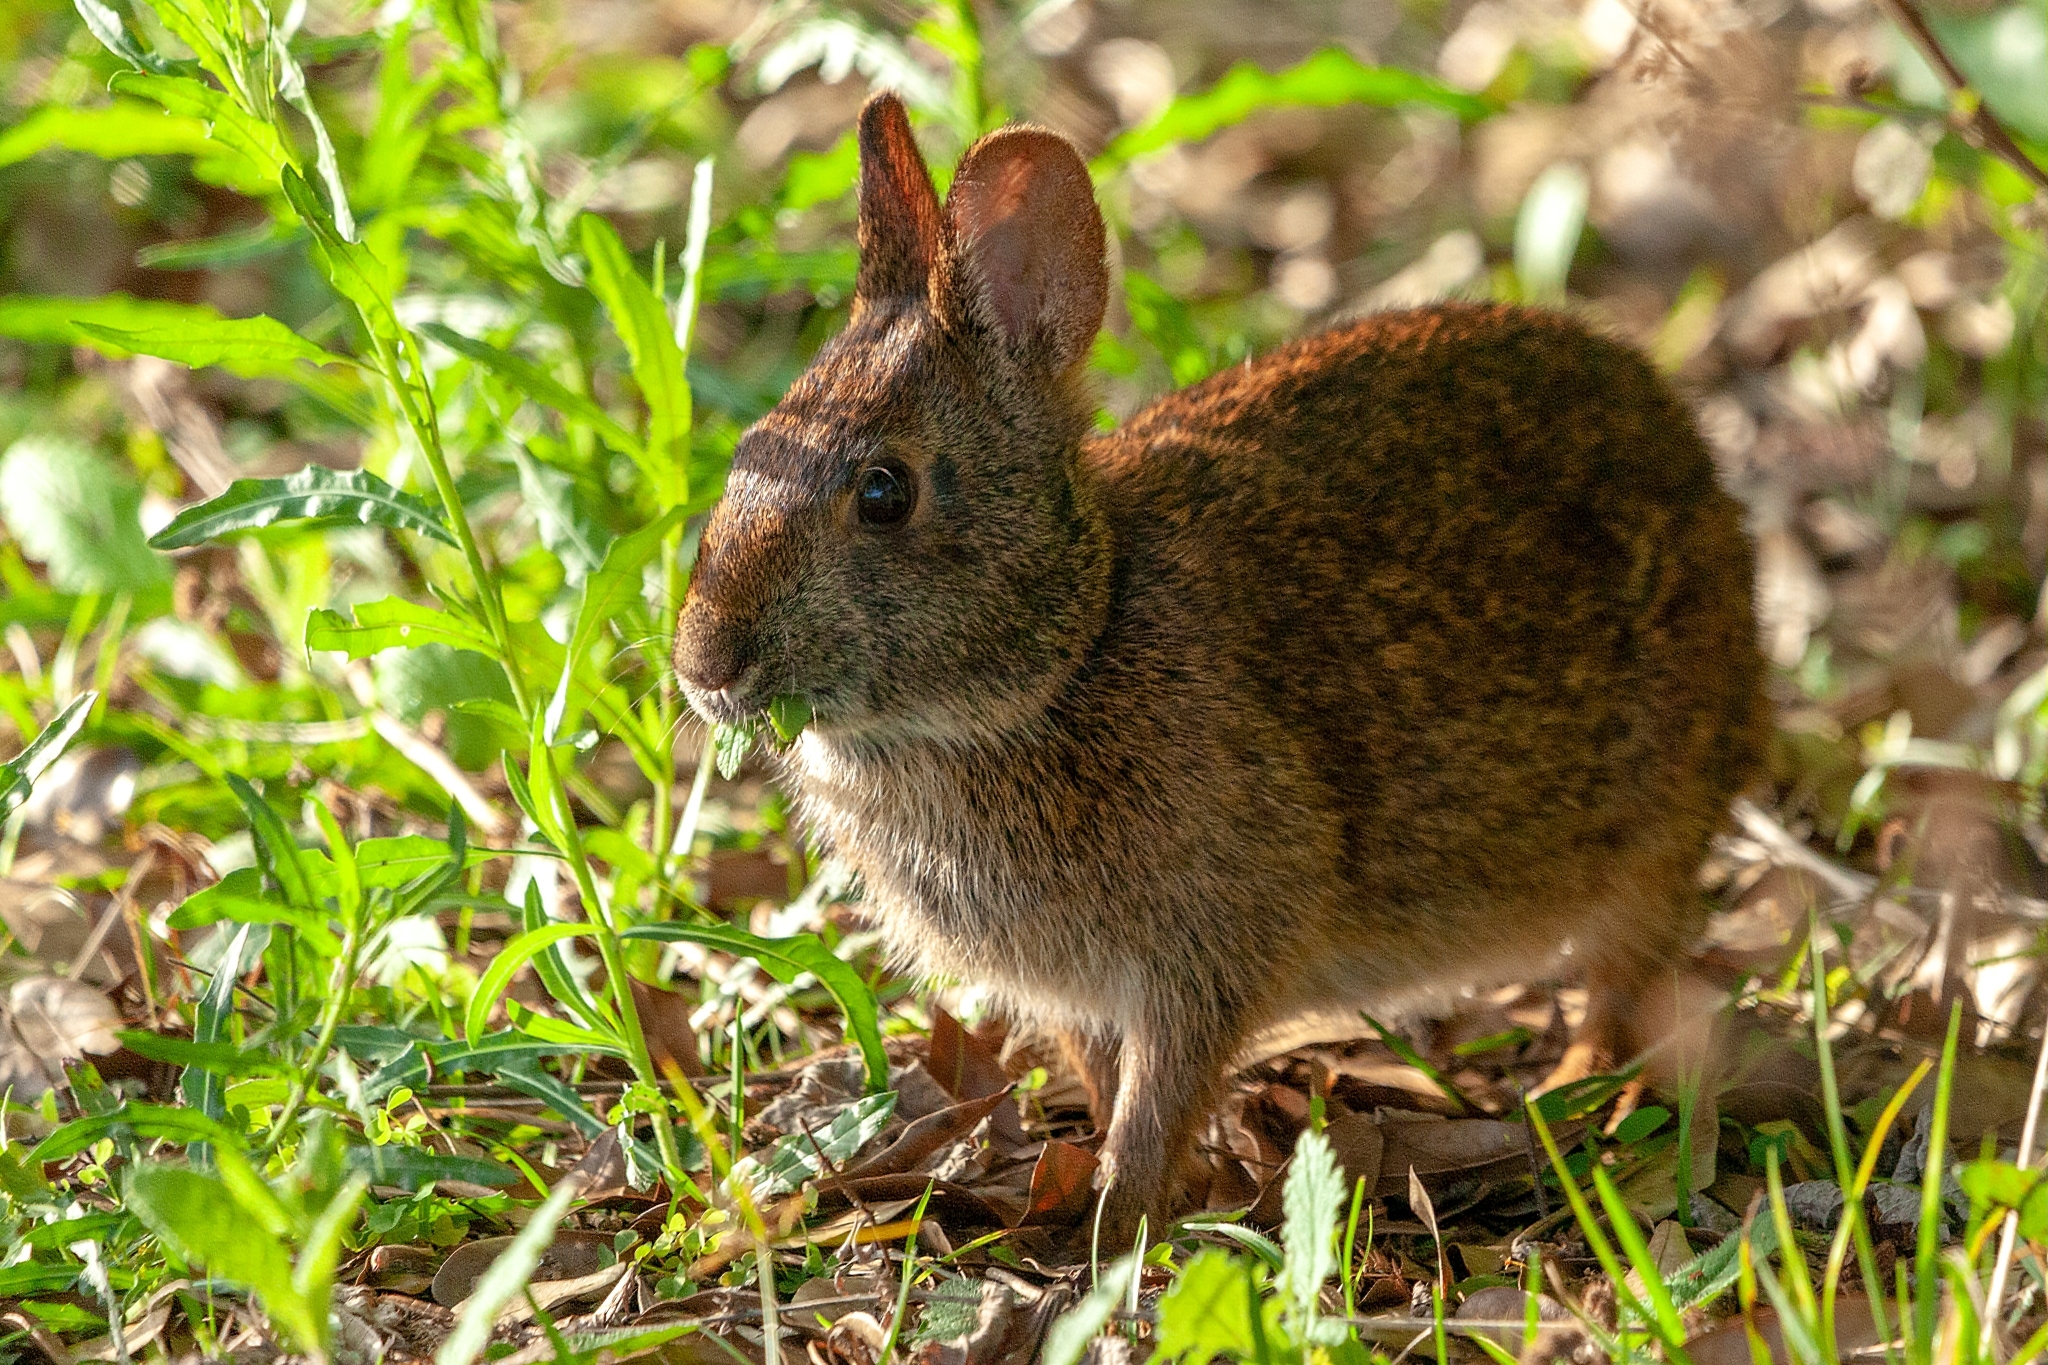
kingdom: Animalia
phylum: Chordata
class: Mammalia
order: Lagomorpha
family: Leporidae
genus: Sylvilagus
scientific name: Sylvilagus palustris
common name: Marsh rabbit
